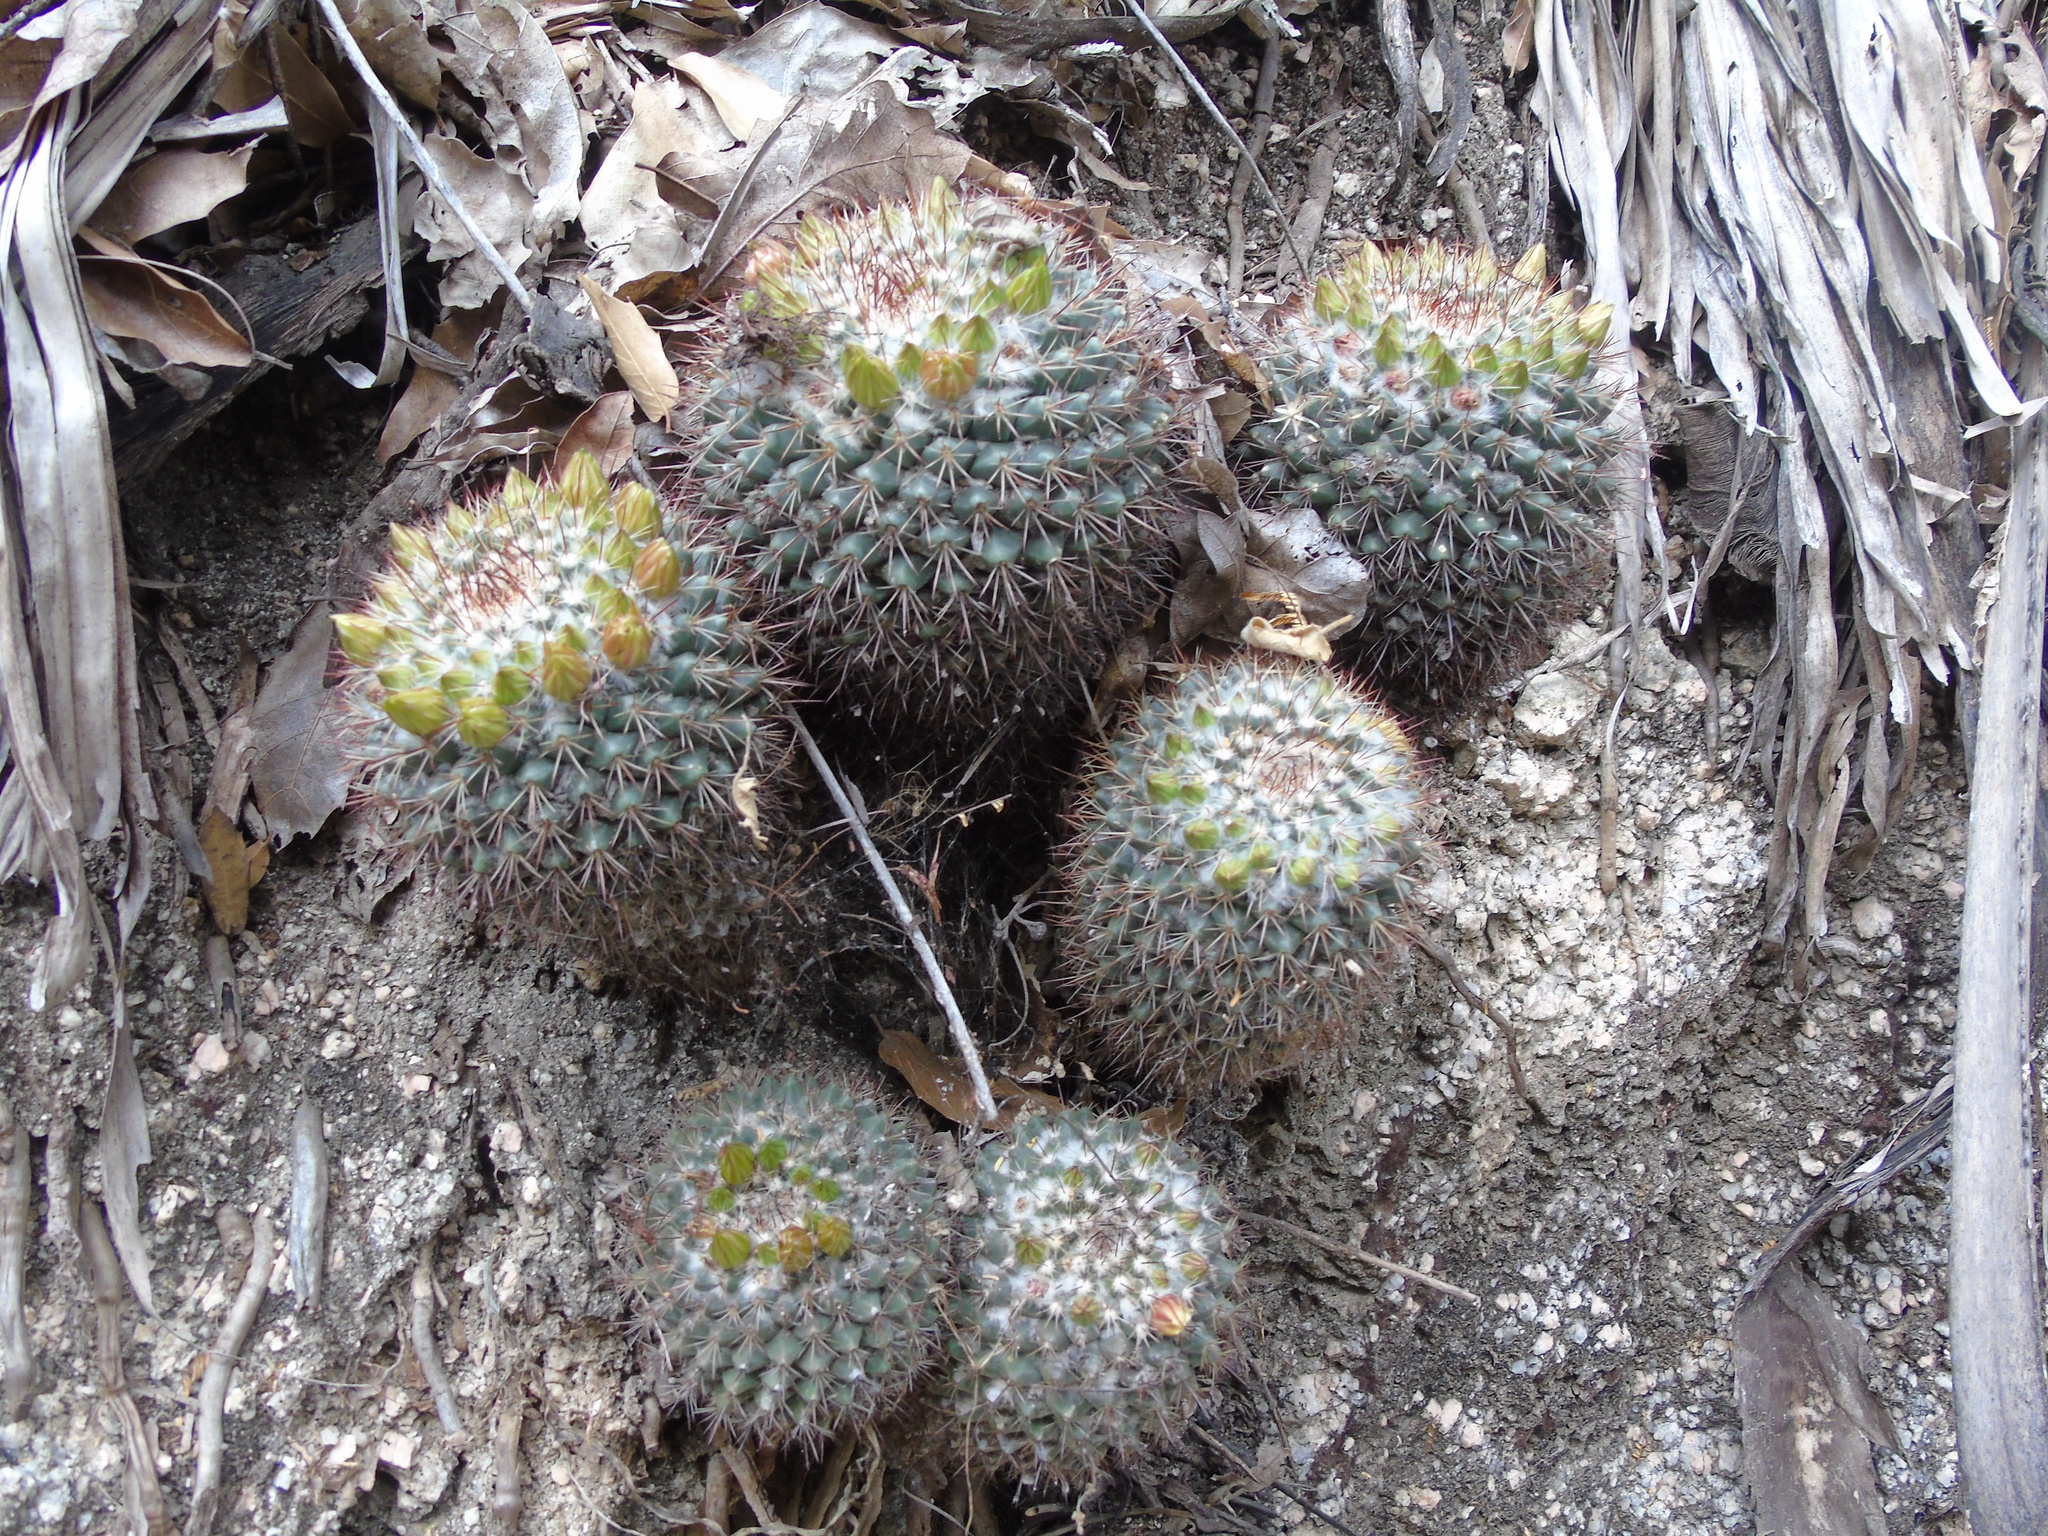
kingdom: Plantae
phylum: Tracheophyta
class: Magnoliopsida
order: Caryophyllales
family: Cactaceae
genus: Mammillaria
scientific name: Mammillaria petrophila
